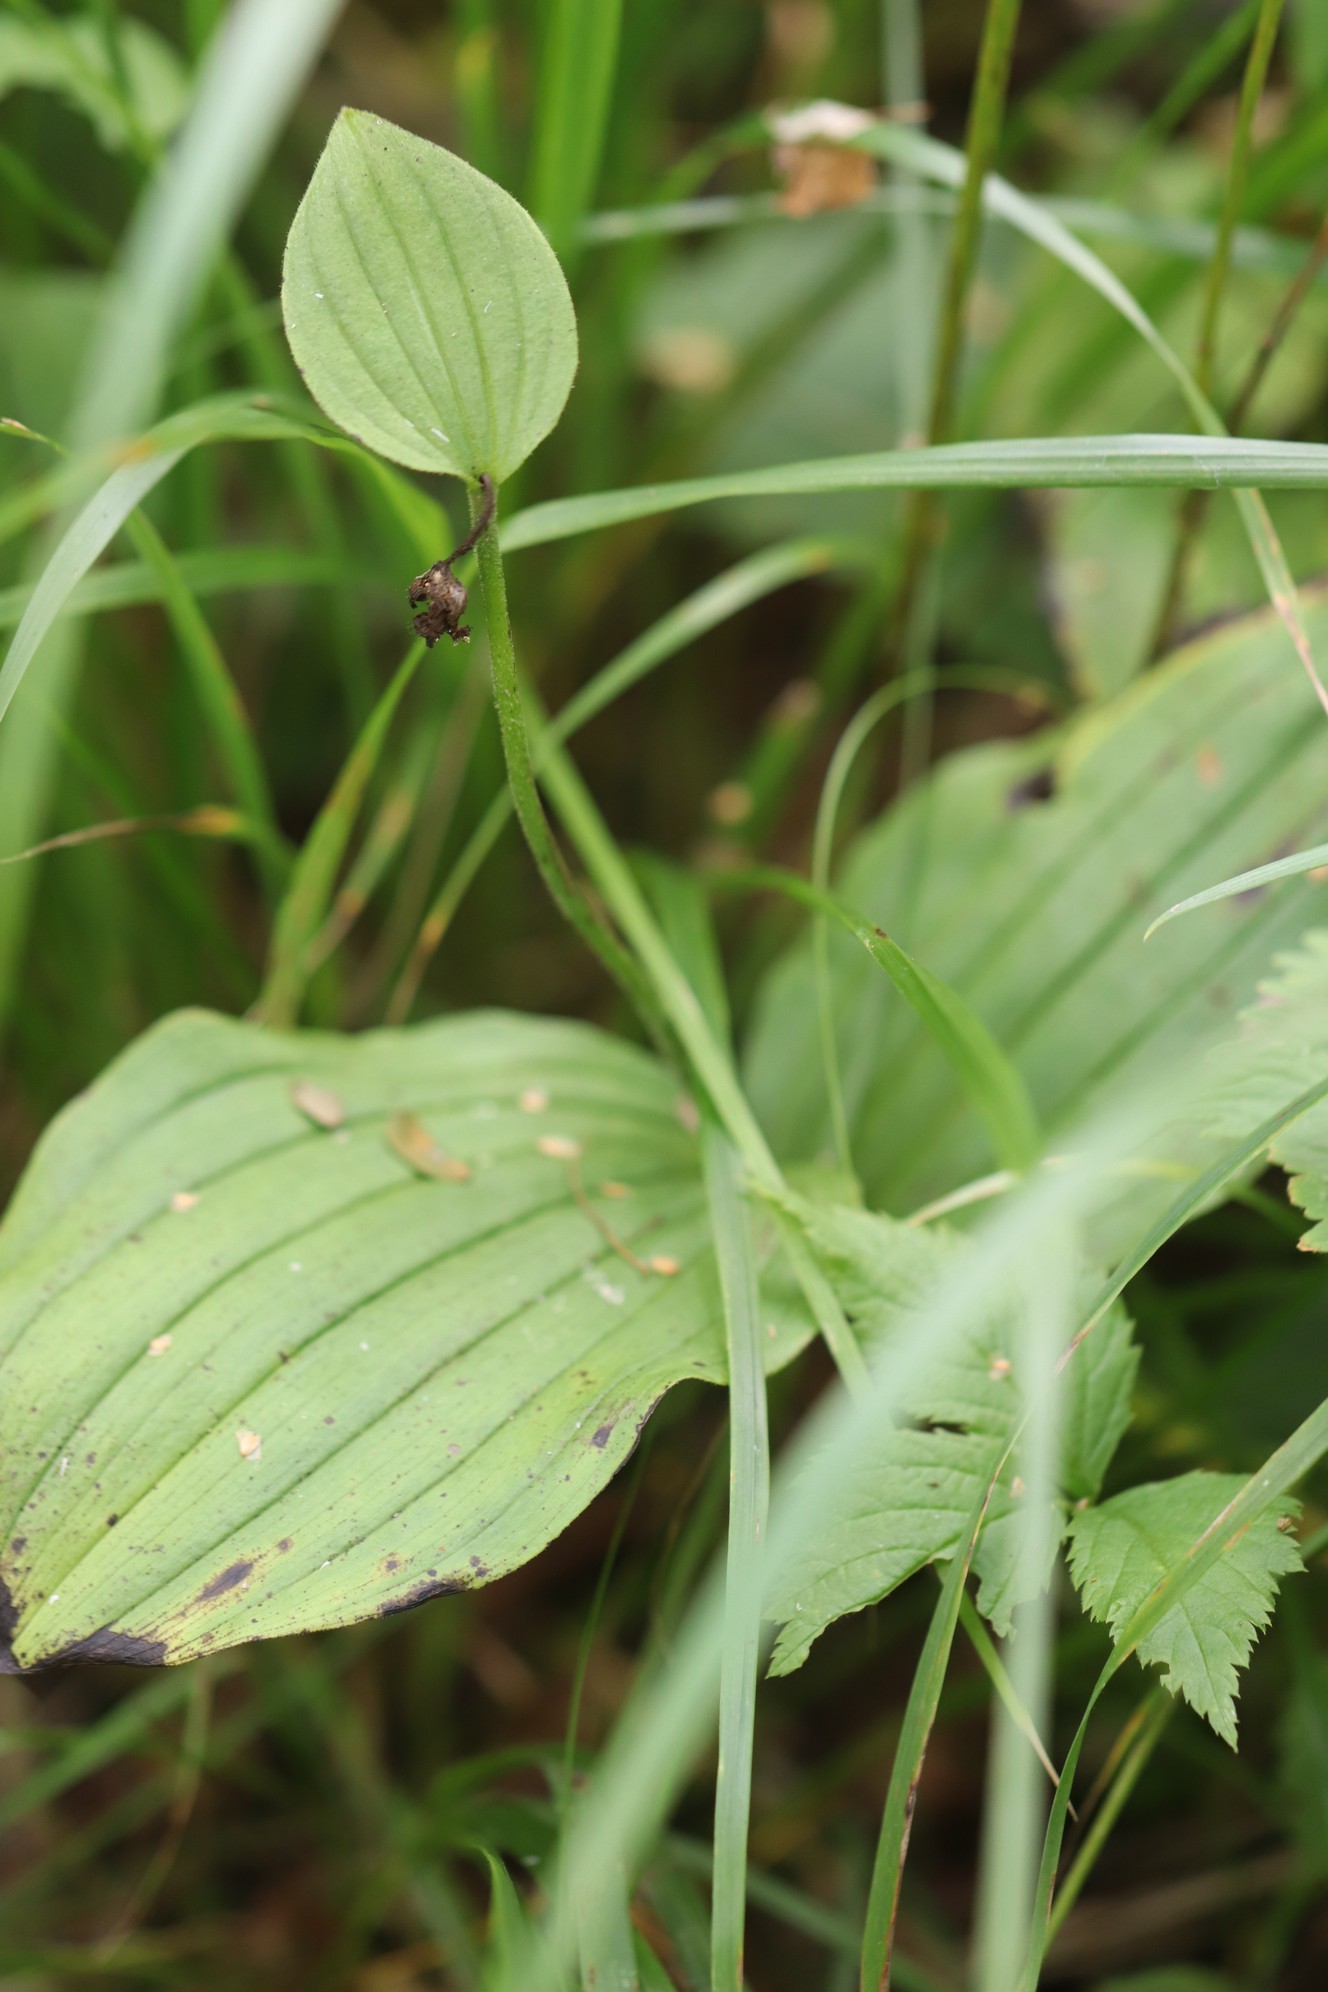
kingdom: Plantae
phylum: Tracheophyta
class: Liliopsida
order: Asparagales
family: Orchidaceae
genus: Cypripedium
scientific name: Cypripedium guttatum
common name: Pink lady slipper
